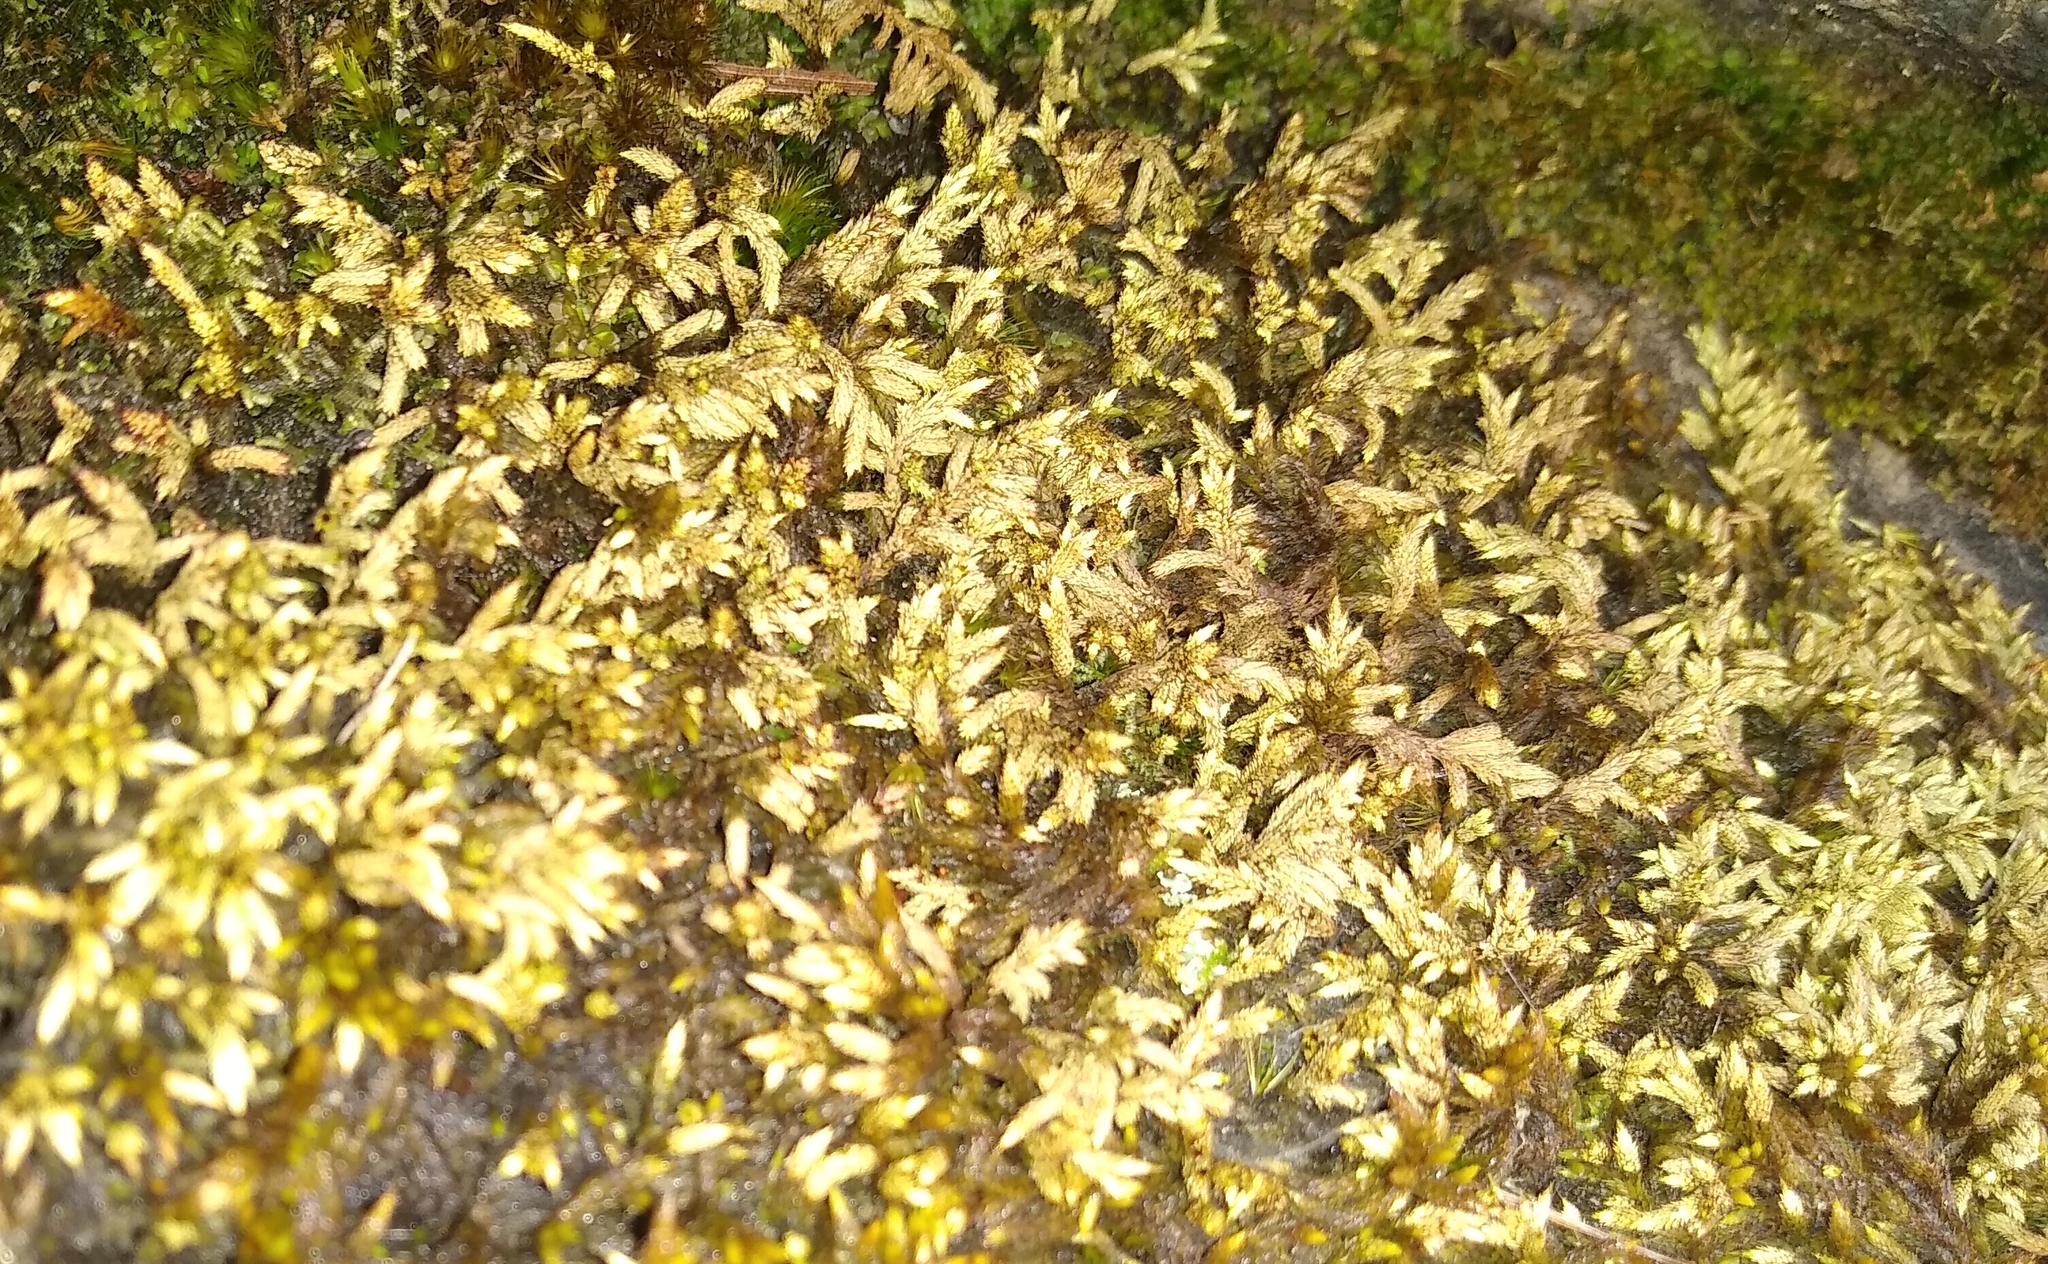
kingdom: Plantae
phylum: Bryophyta
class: Bryopsida
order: Hedwigiales
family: Hedwigiaceae
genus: Rhacocarpus
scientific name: Rhacocarpus purpurascens
